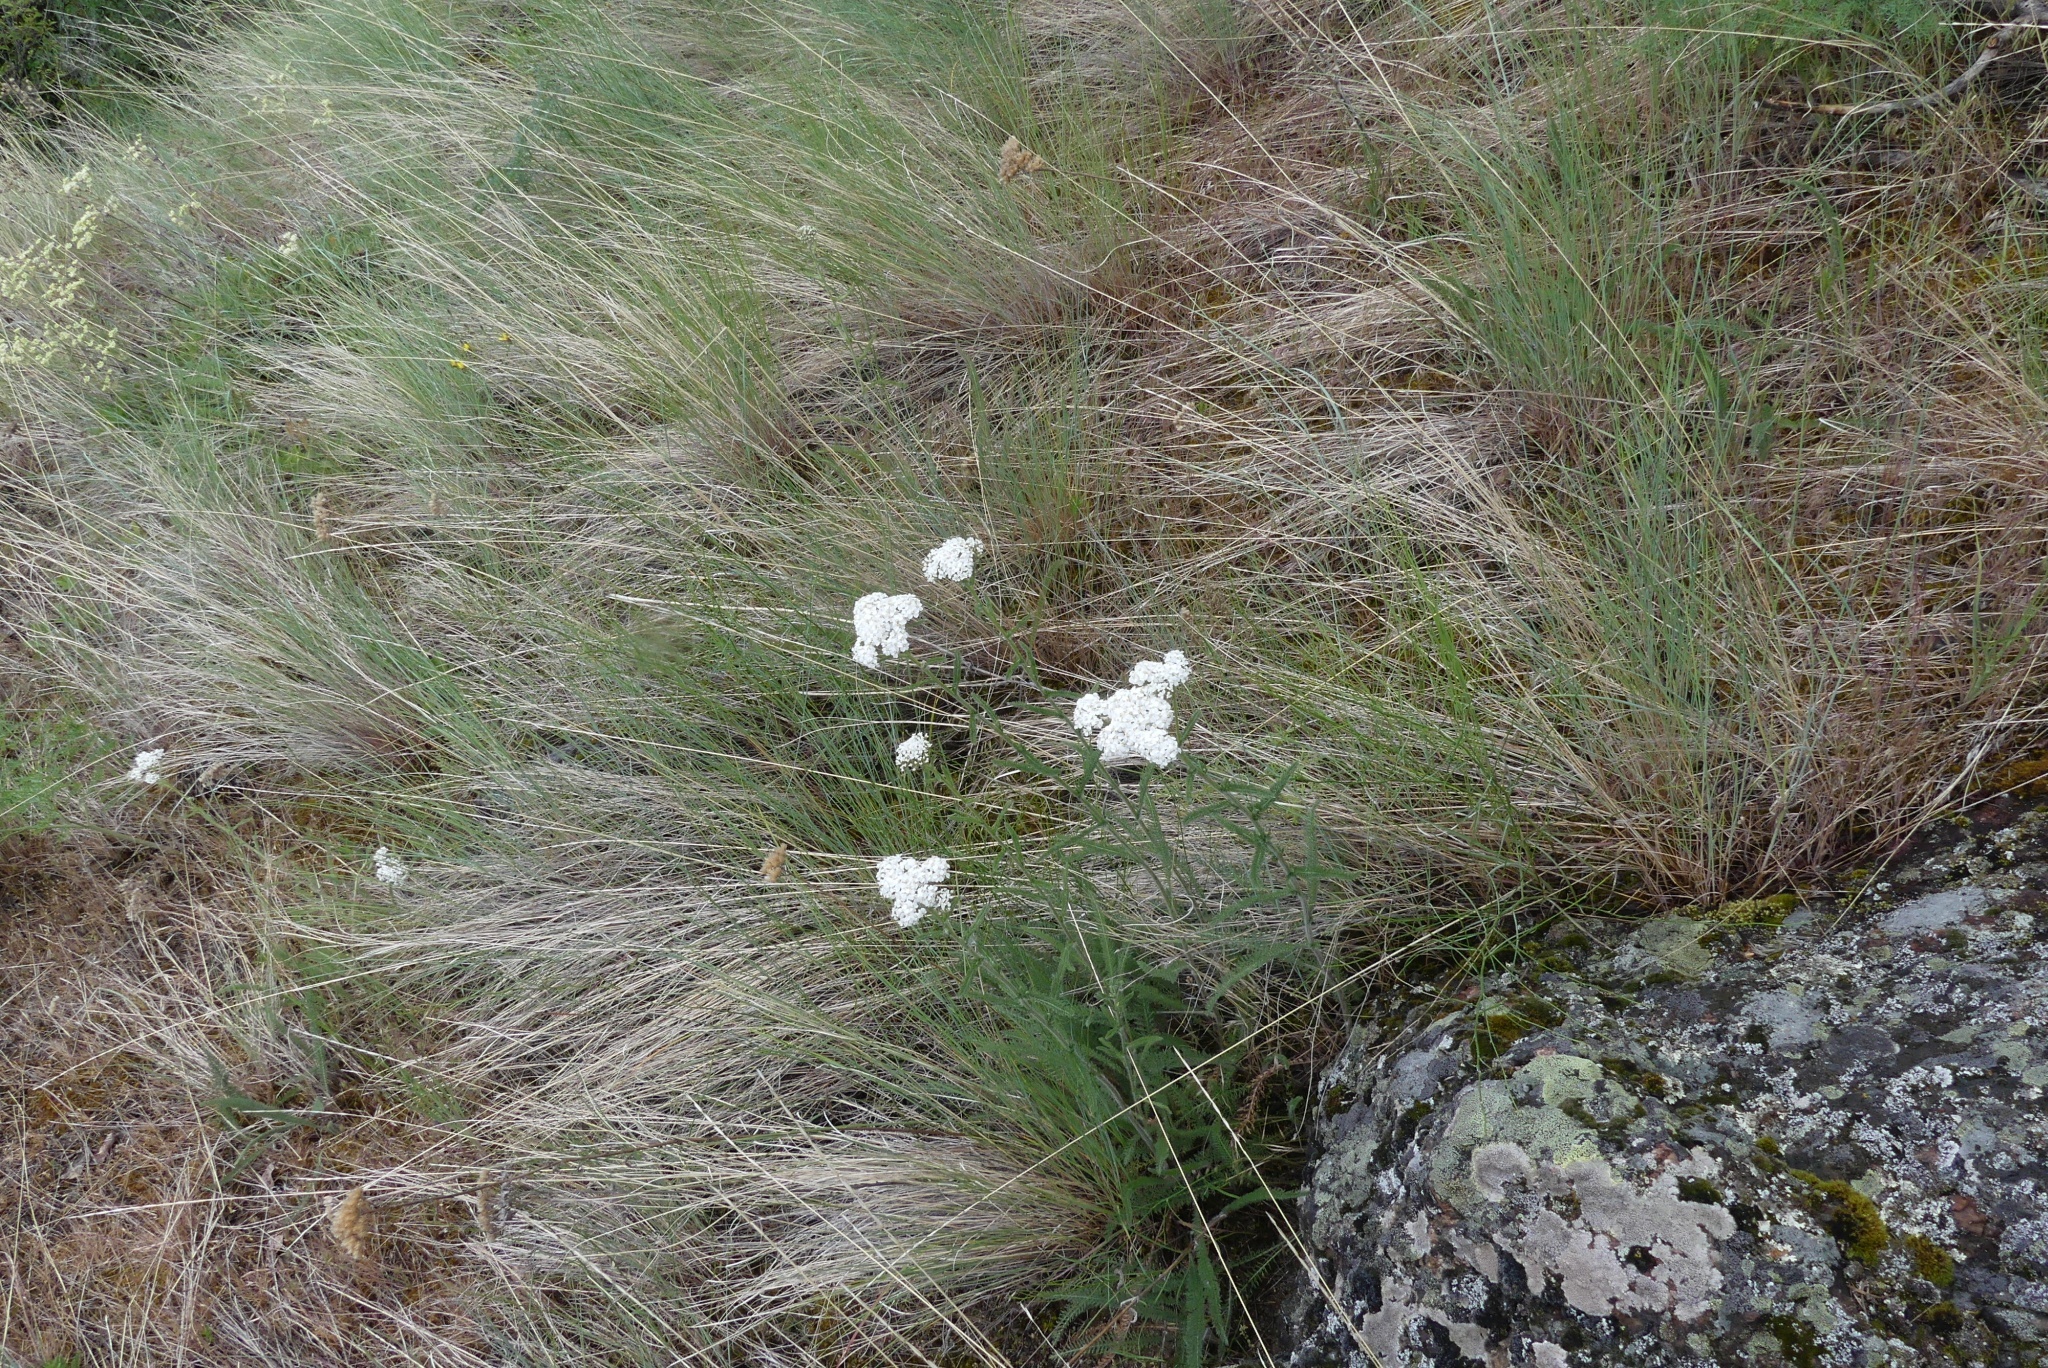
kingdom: Plantae
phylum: Tracheophyta
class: Magnoliopsida
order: Asterales
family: Asteraceae
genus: Achillea
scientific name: Achillea millefolium
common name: Yarrow
